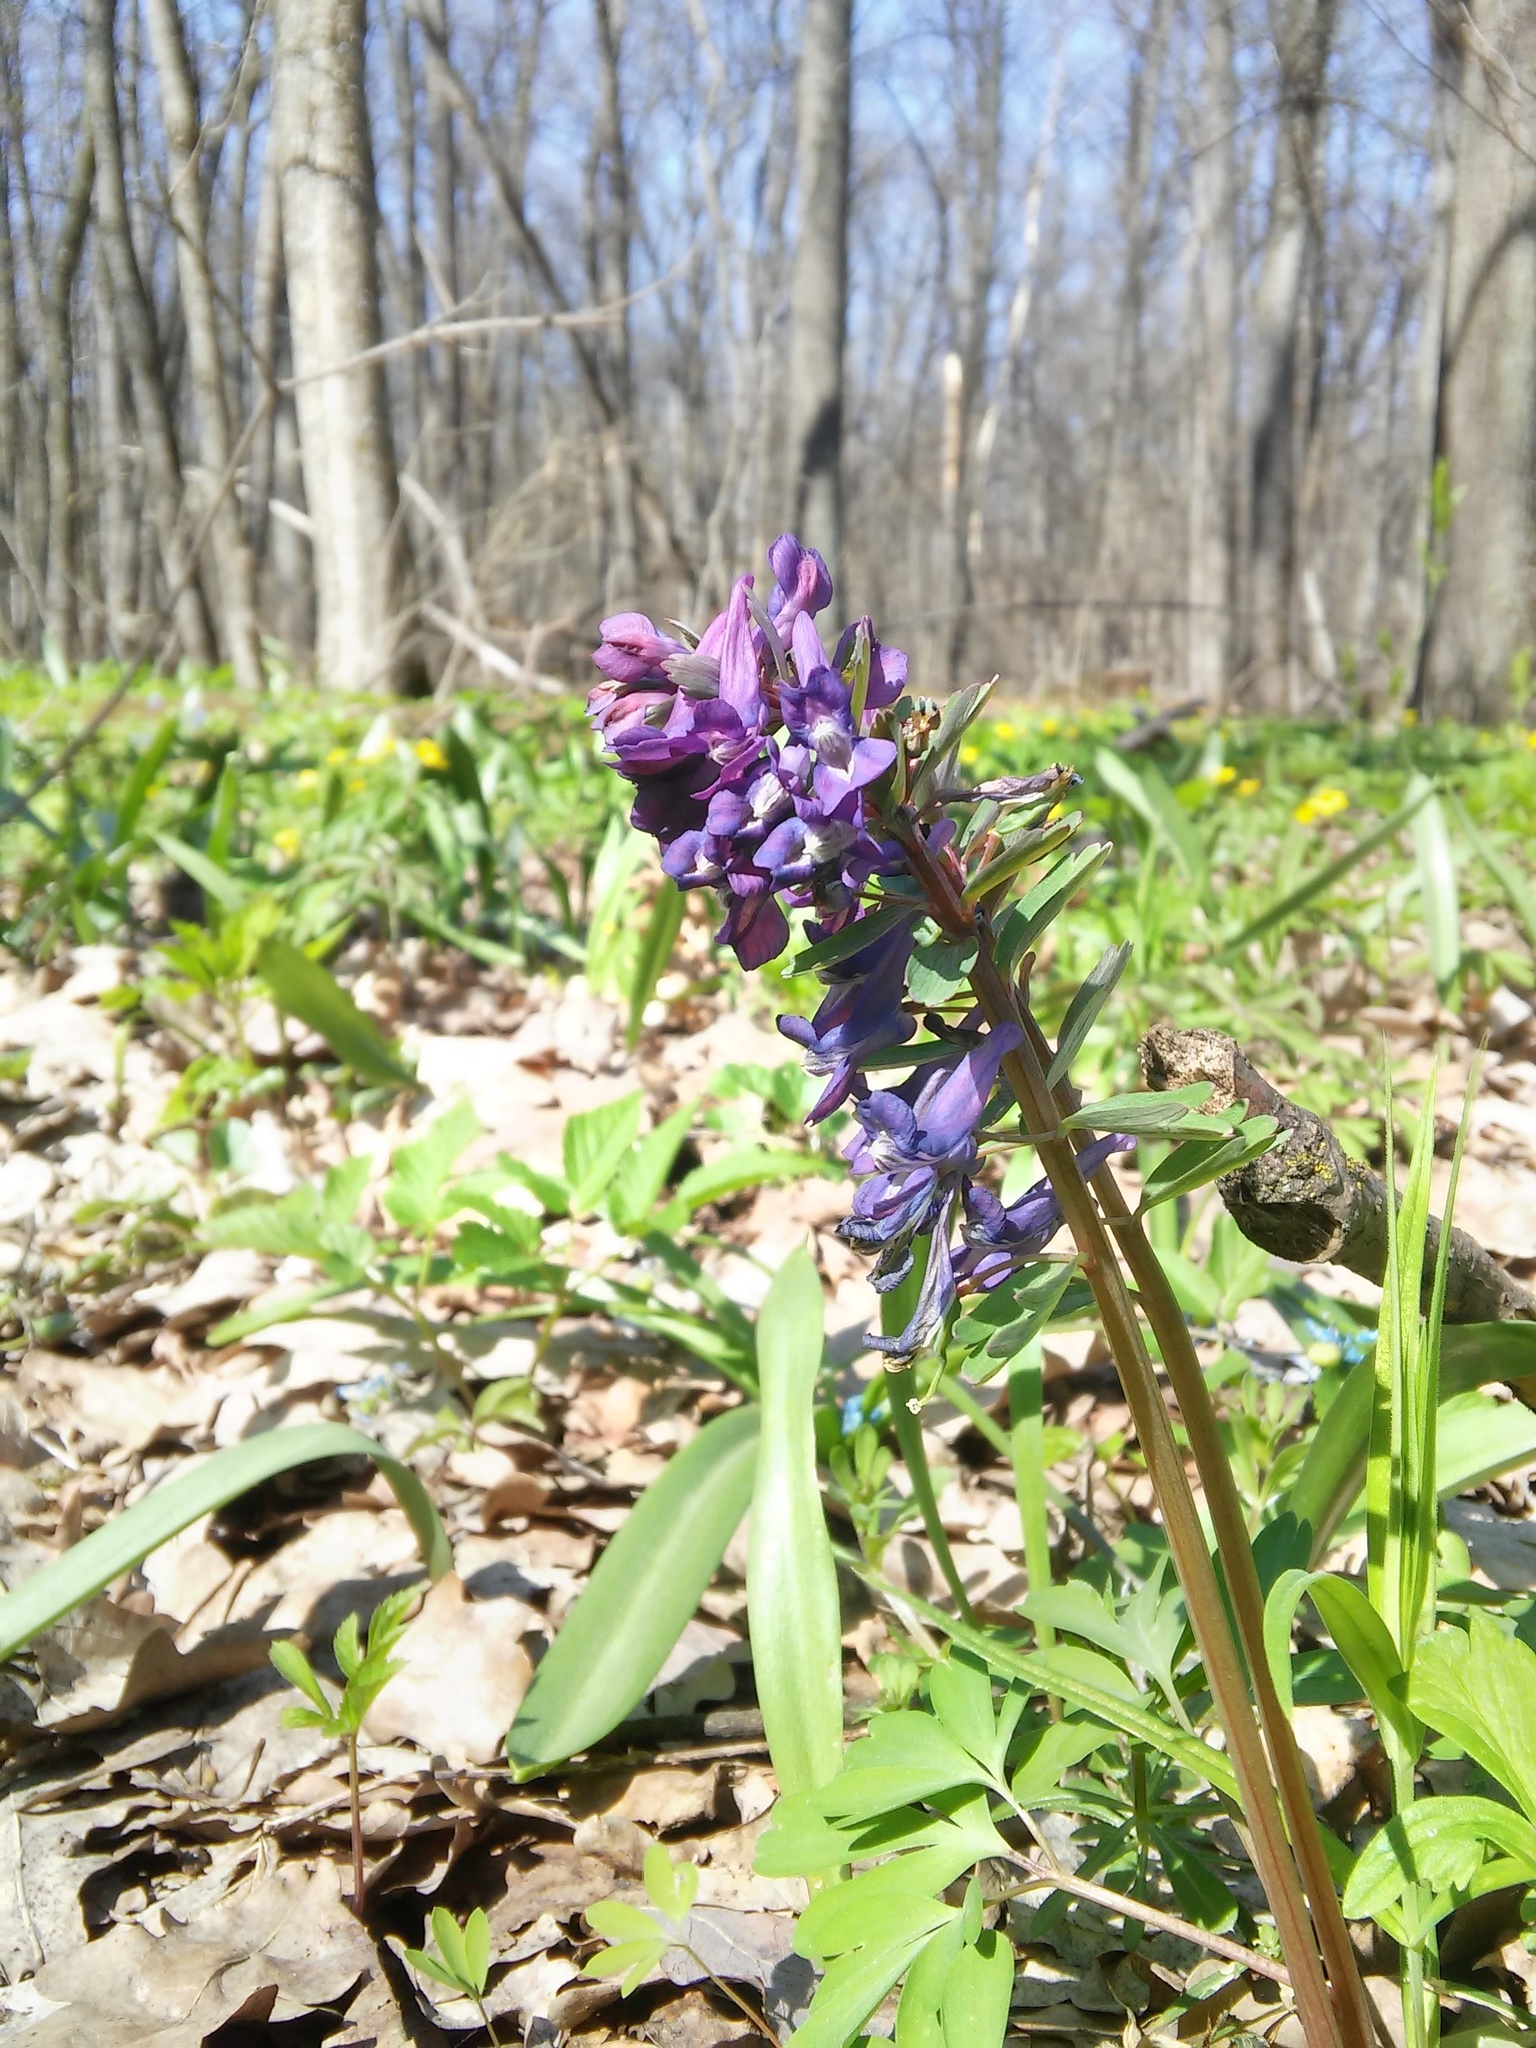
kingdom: Plantae
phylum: Tracheophyta
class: Magnoliopsida
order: Ranunculales
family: Papaveraceae
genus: Corydalis
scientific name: Corydalis solida
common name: Bird-in-a-bush
